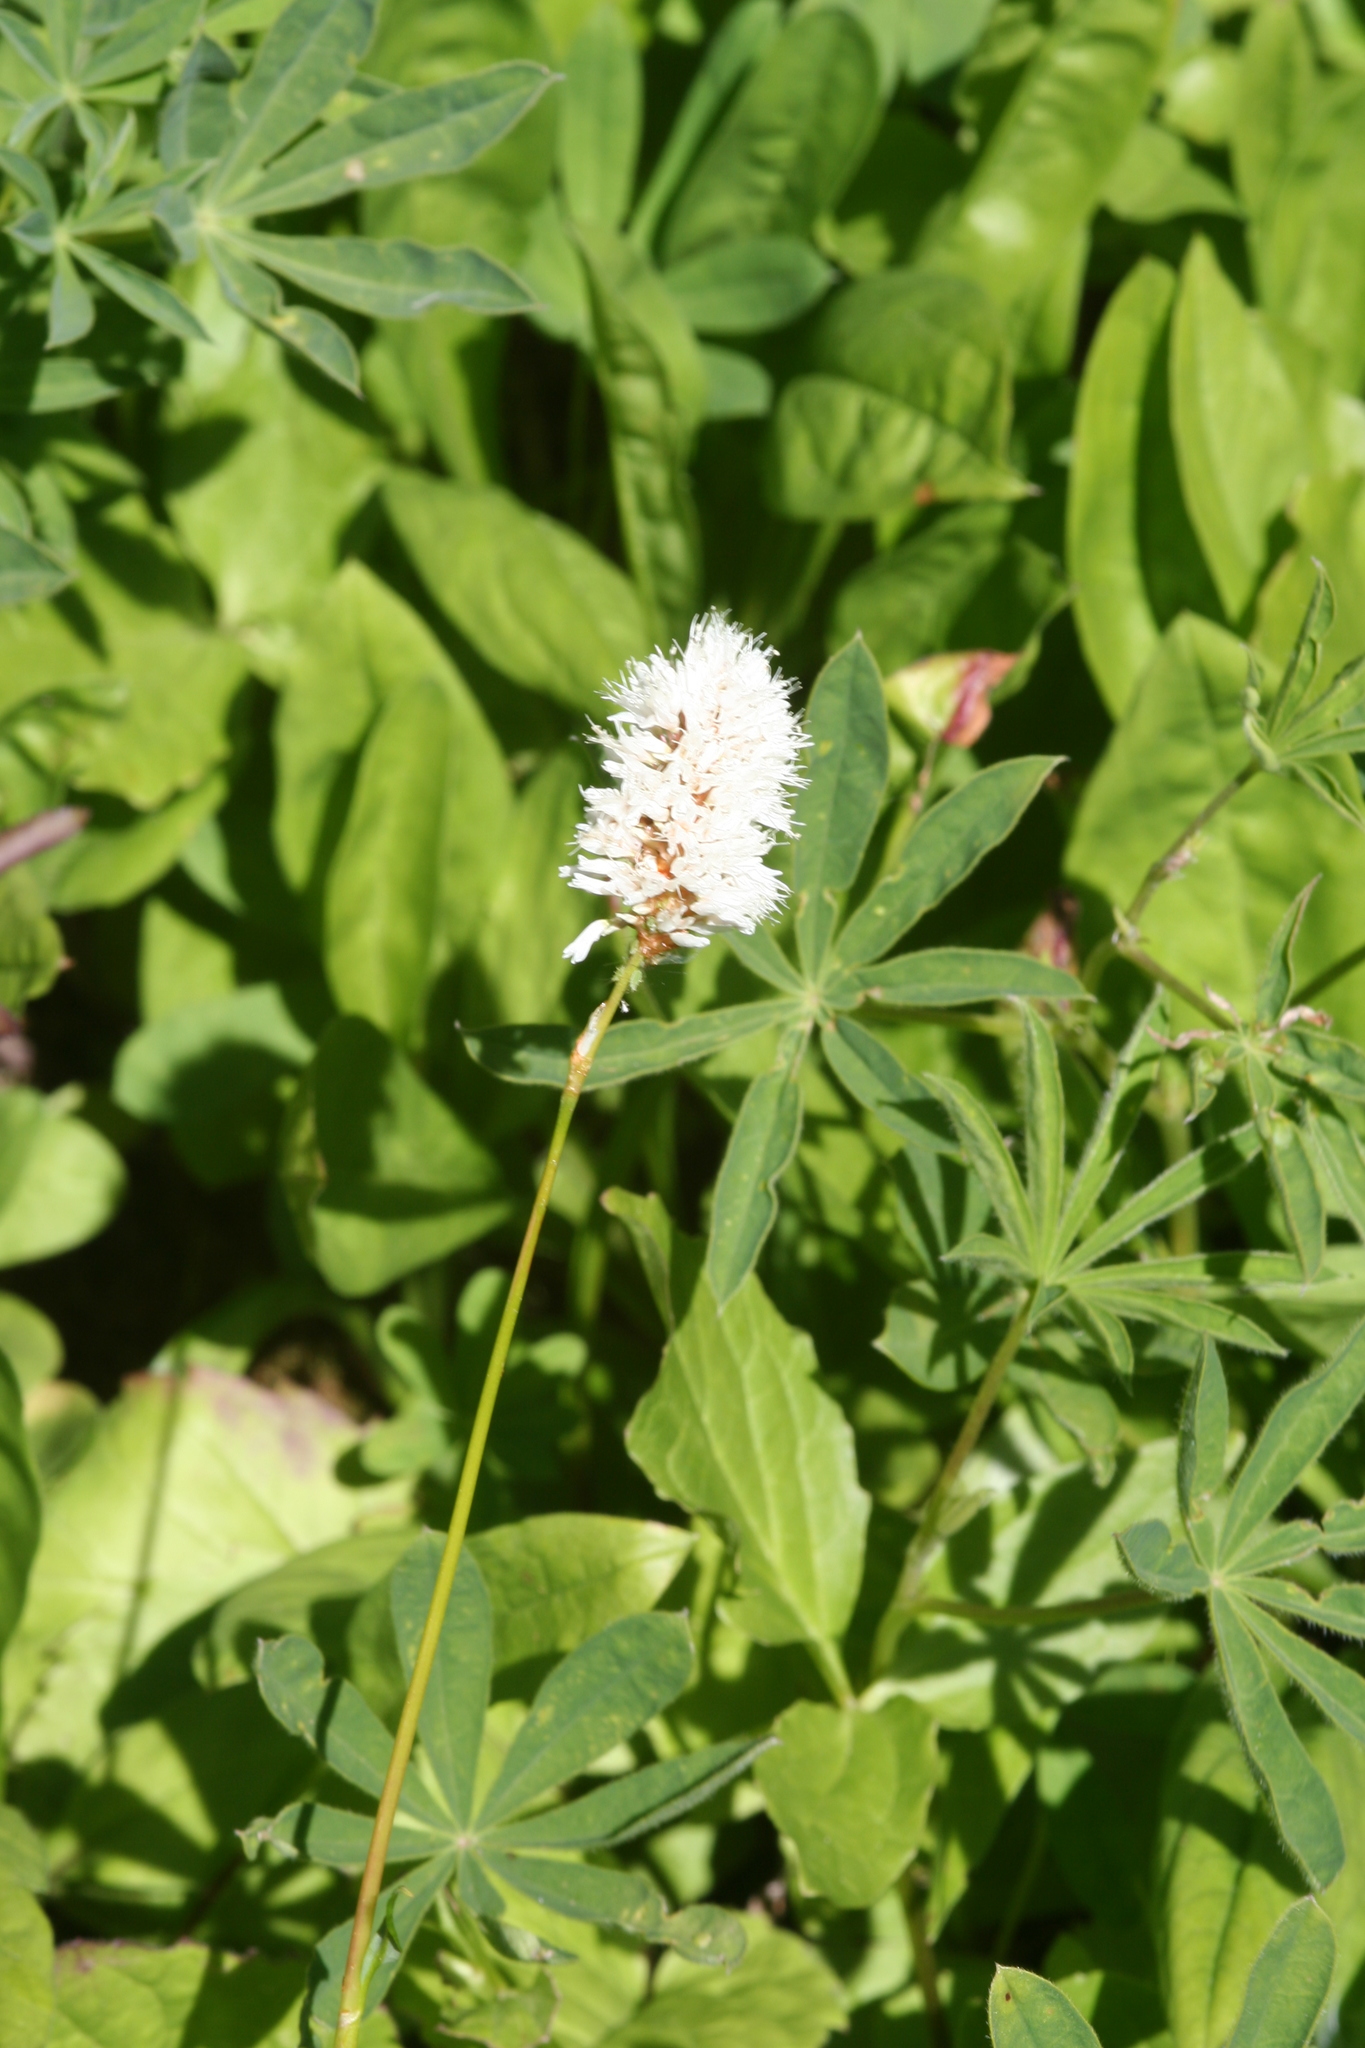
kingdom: Plantae
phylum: Tracheophyta
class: Magnoliopsida
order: Caryophyllales
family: Polygonaceae
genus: Bistorta
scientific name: Bistorta bistortoides
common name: American bistort
